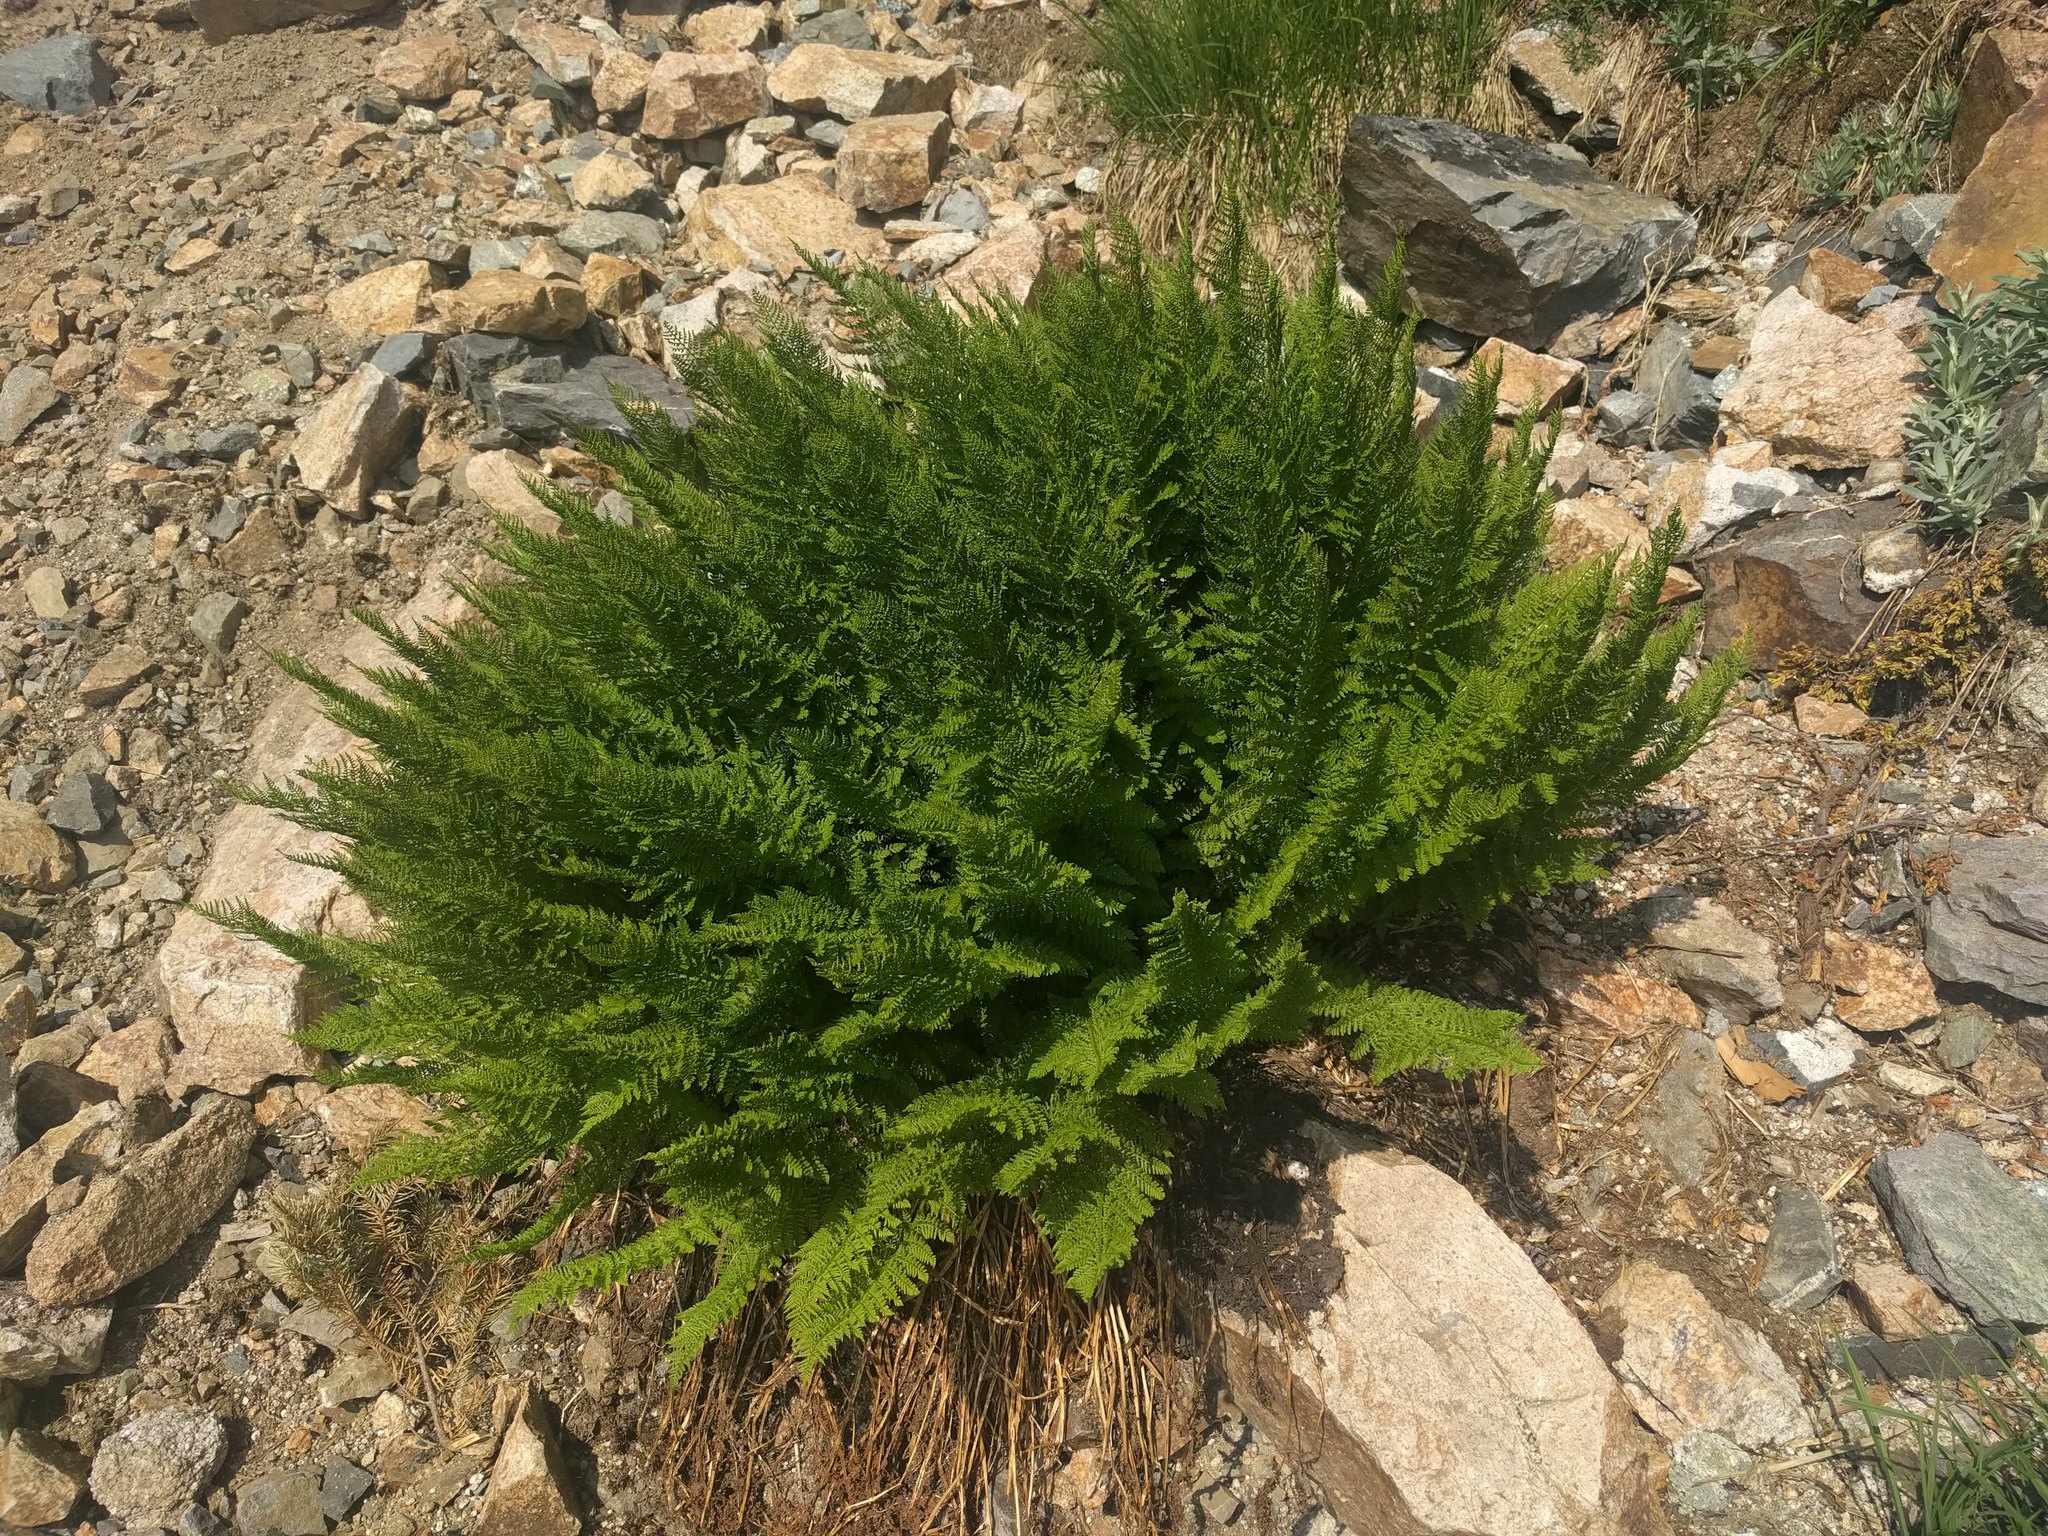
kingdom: Plantae
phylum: Tracheophyta
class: Polypodiopsida
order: Polypodiales
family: Athyriaceae
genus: Athyrium
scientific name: Athyrium americanum
